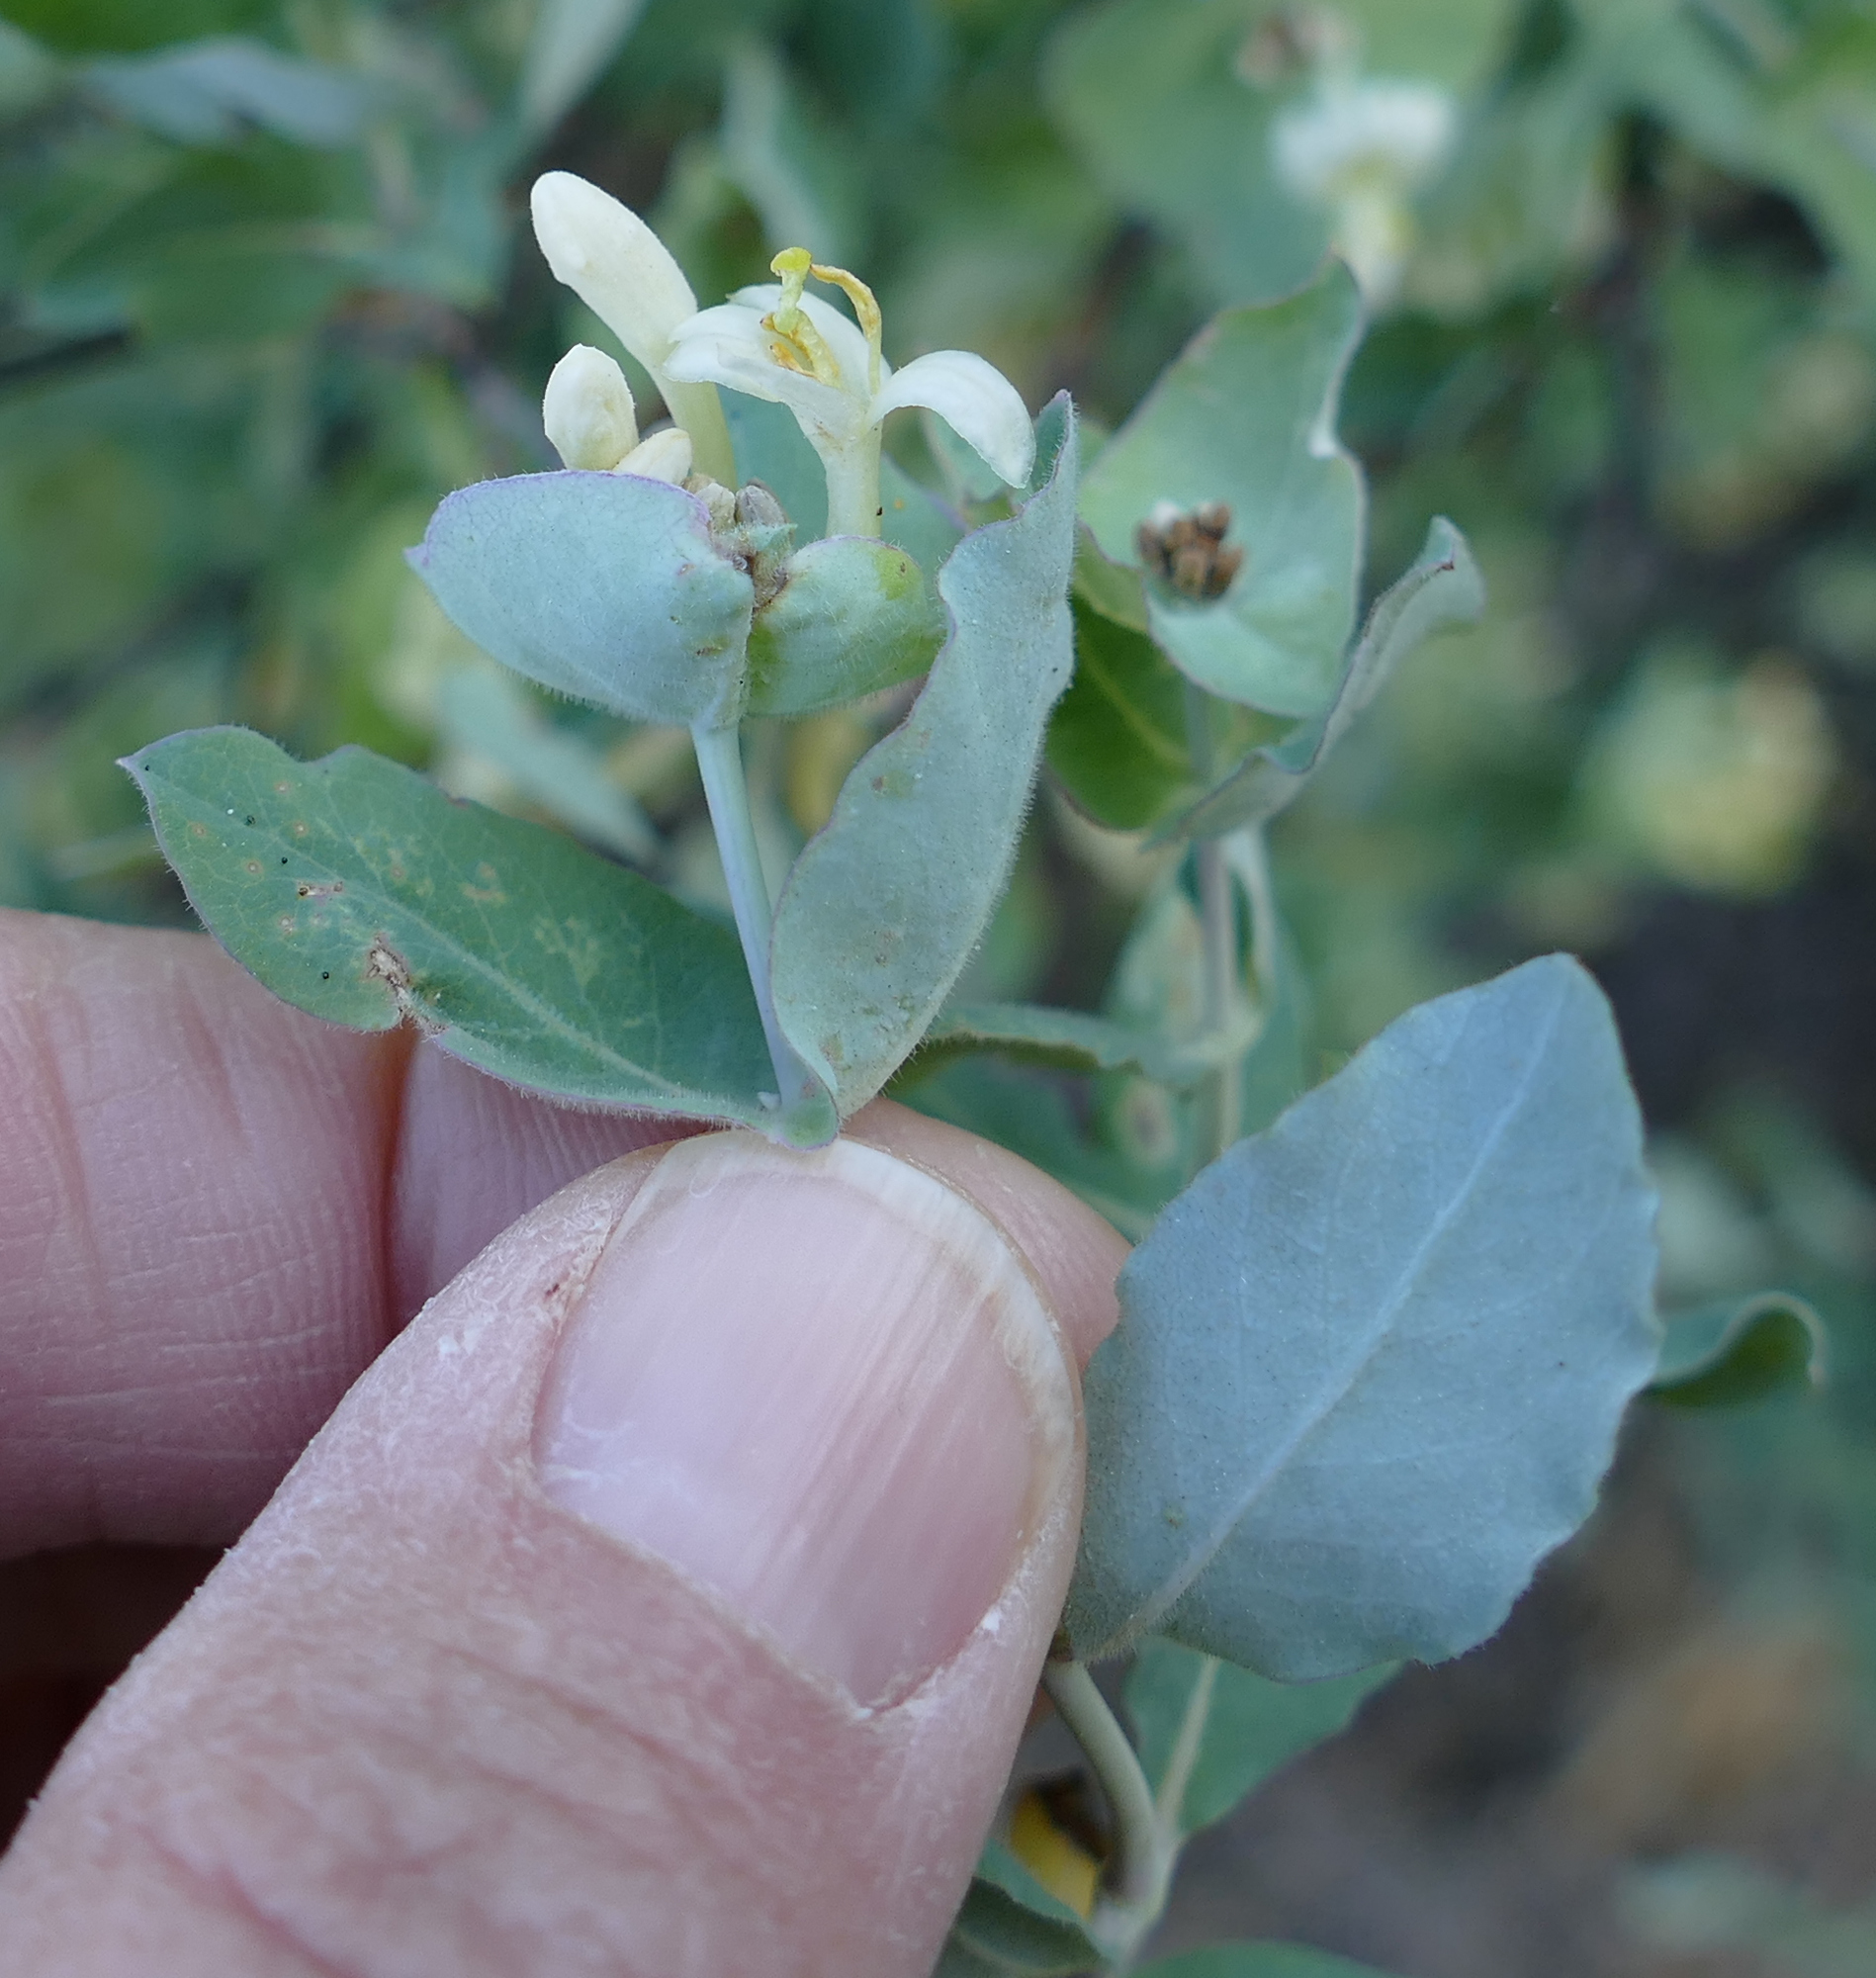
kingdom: Plantae
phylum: Tracheophyta
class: Magnoliopsida
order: Dipsacales
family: Caprifoliaceae
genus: Lonicera
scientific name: Lonicera albiflora
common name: White honeysuckle
